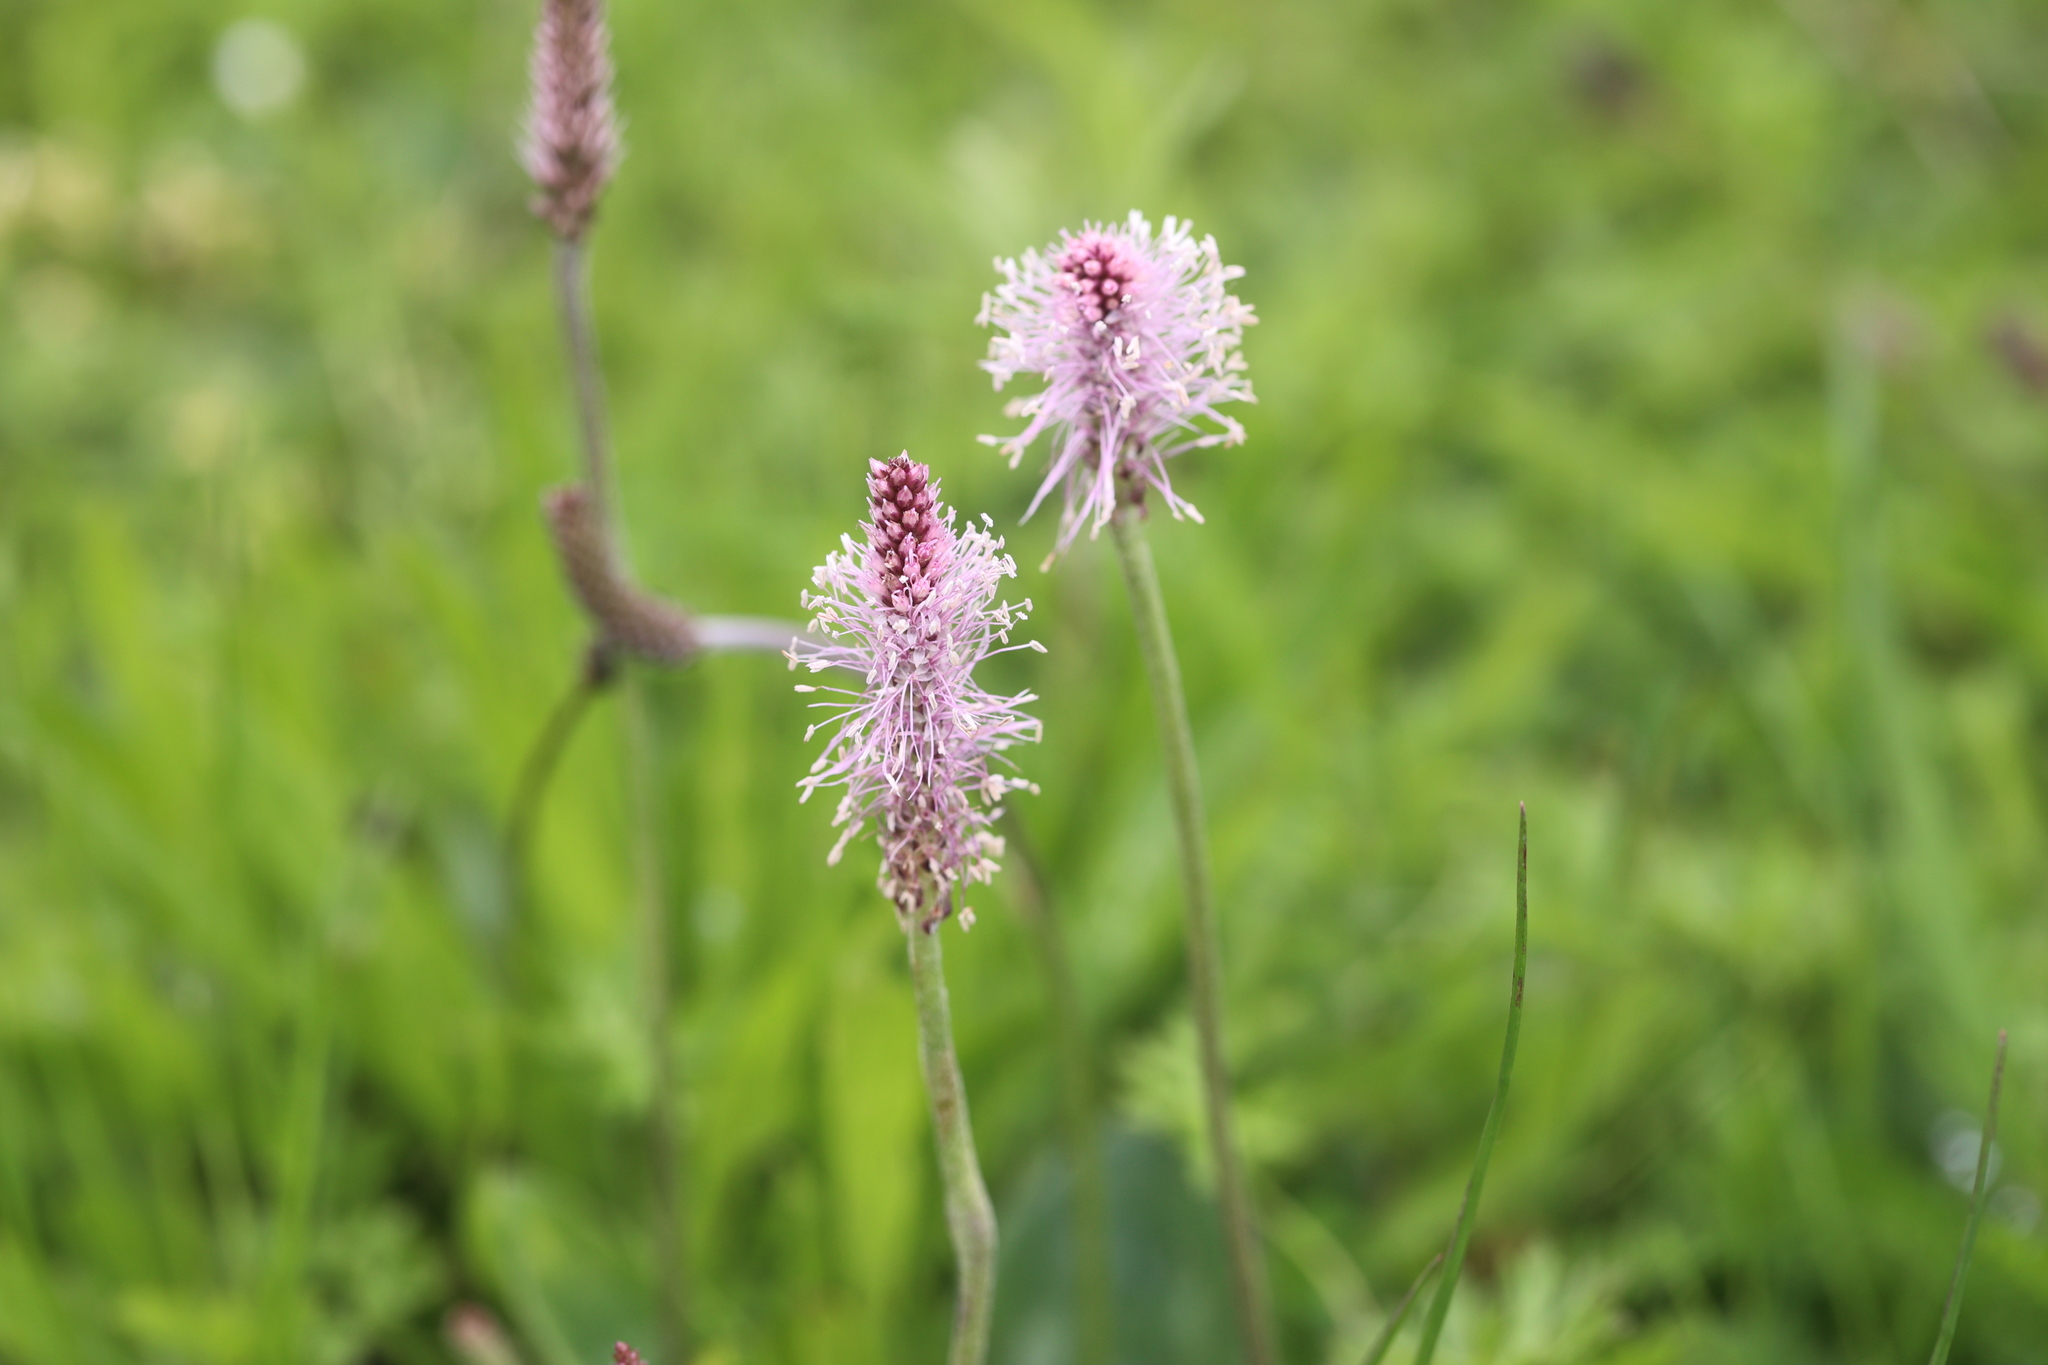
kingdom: Plantae
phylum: Tracheophyta
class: Magnoliopsida
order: Lamiales
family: Plantaginaceae
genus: Plantago
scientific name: Plantago media
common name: Hoary plantain
